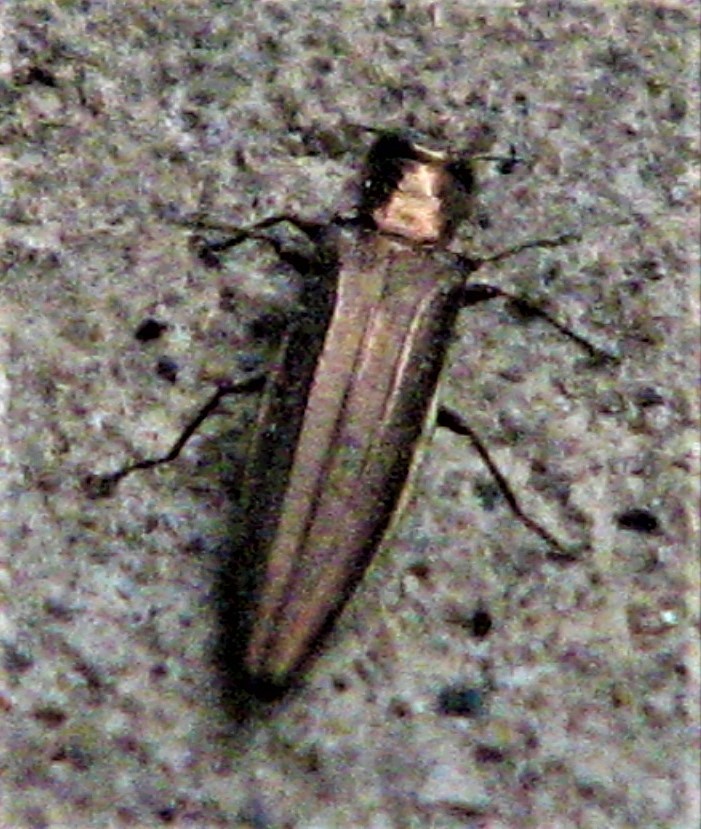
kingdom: Animalia
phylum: Arthropoda
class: Insecta
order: Coleoptera
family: Buprestidae
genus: Agrilus
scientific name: Agrilus macer
